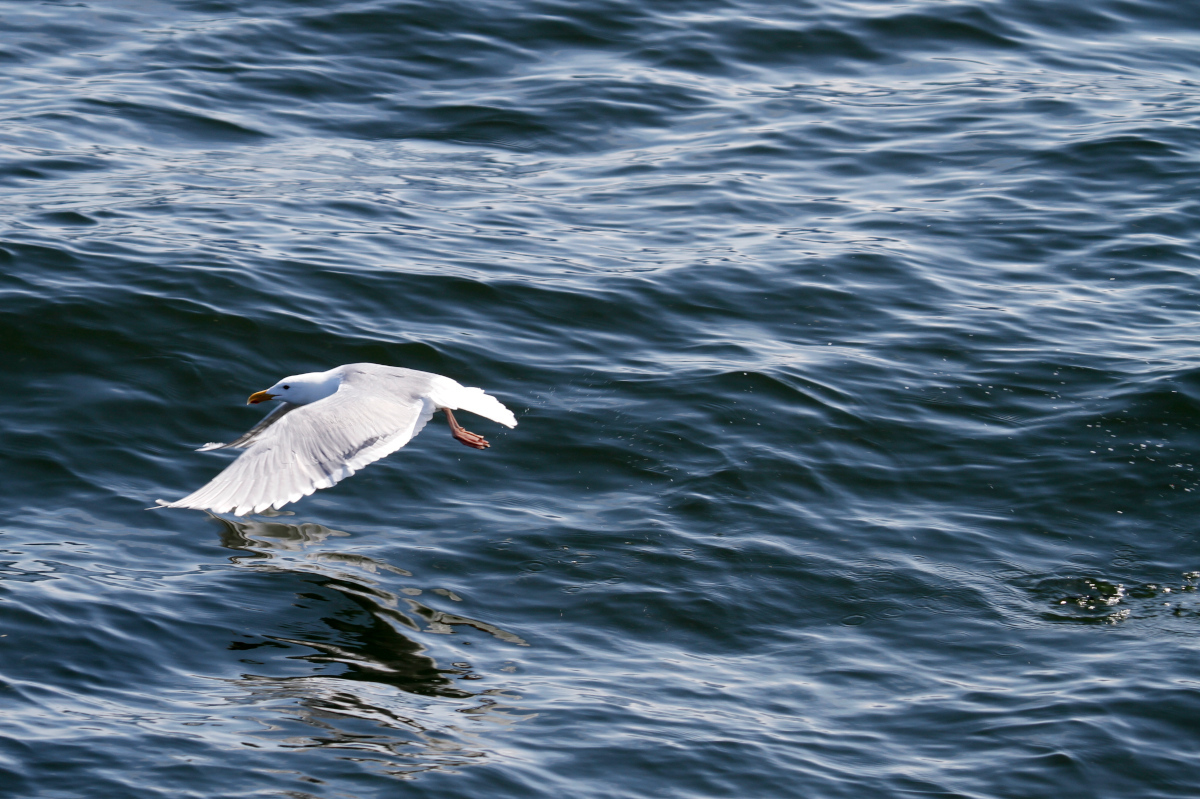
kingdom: Animalia
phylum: Chordata
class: Aves
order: Charadriiformes
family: Laridae
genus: Larus
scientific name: Larus glaucescens
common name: Glaucous-winged gull
